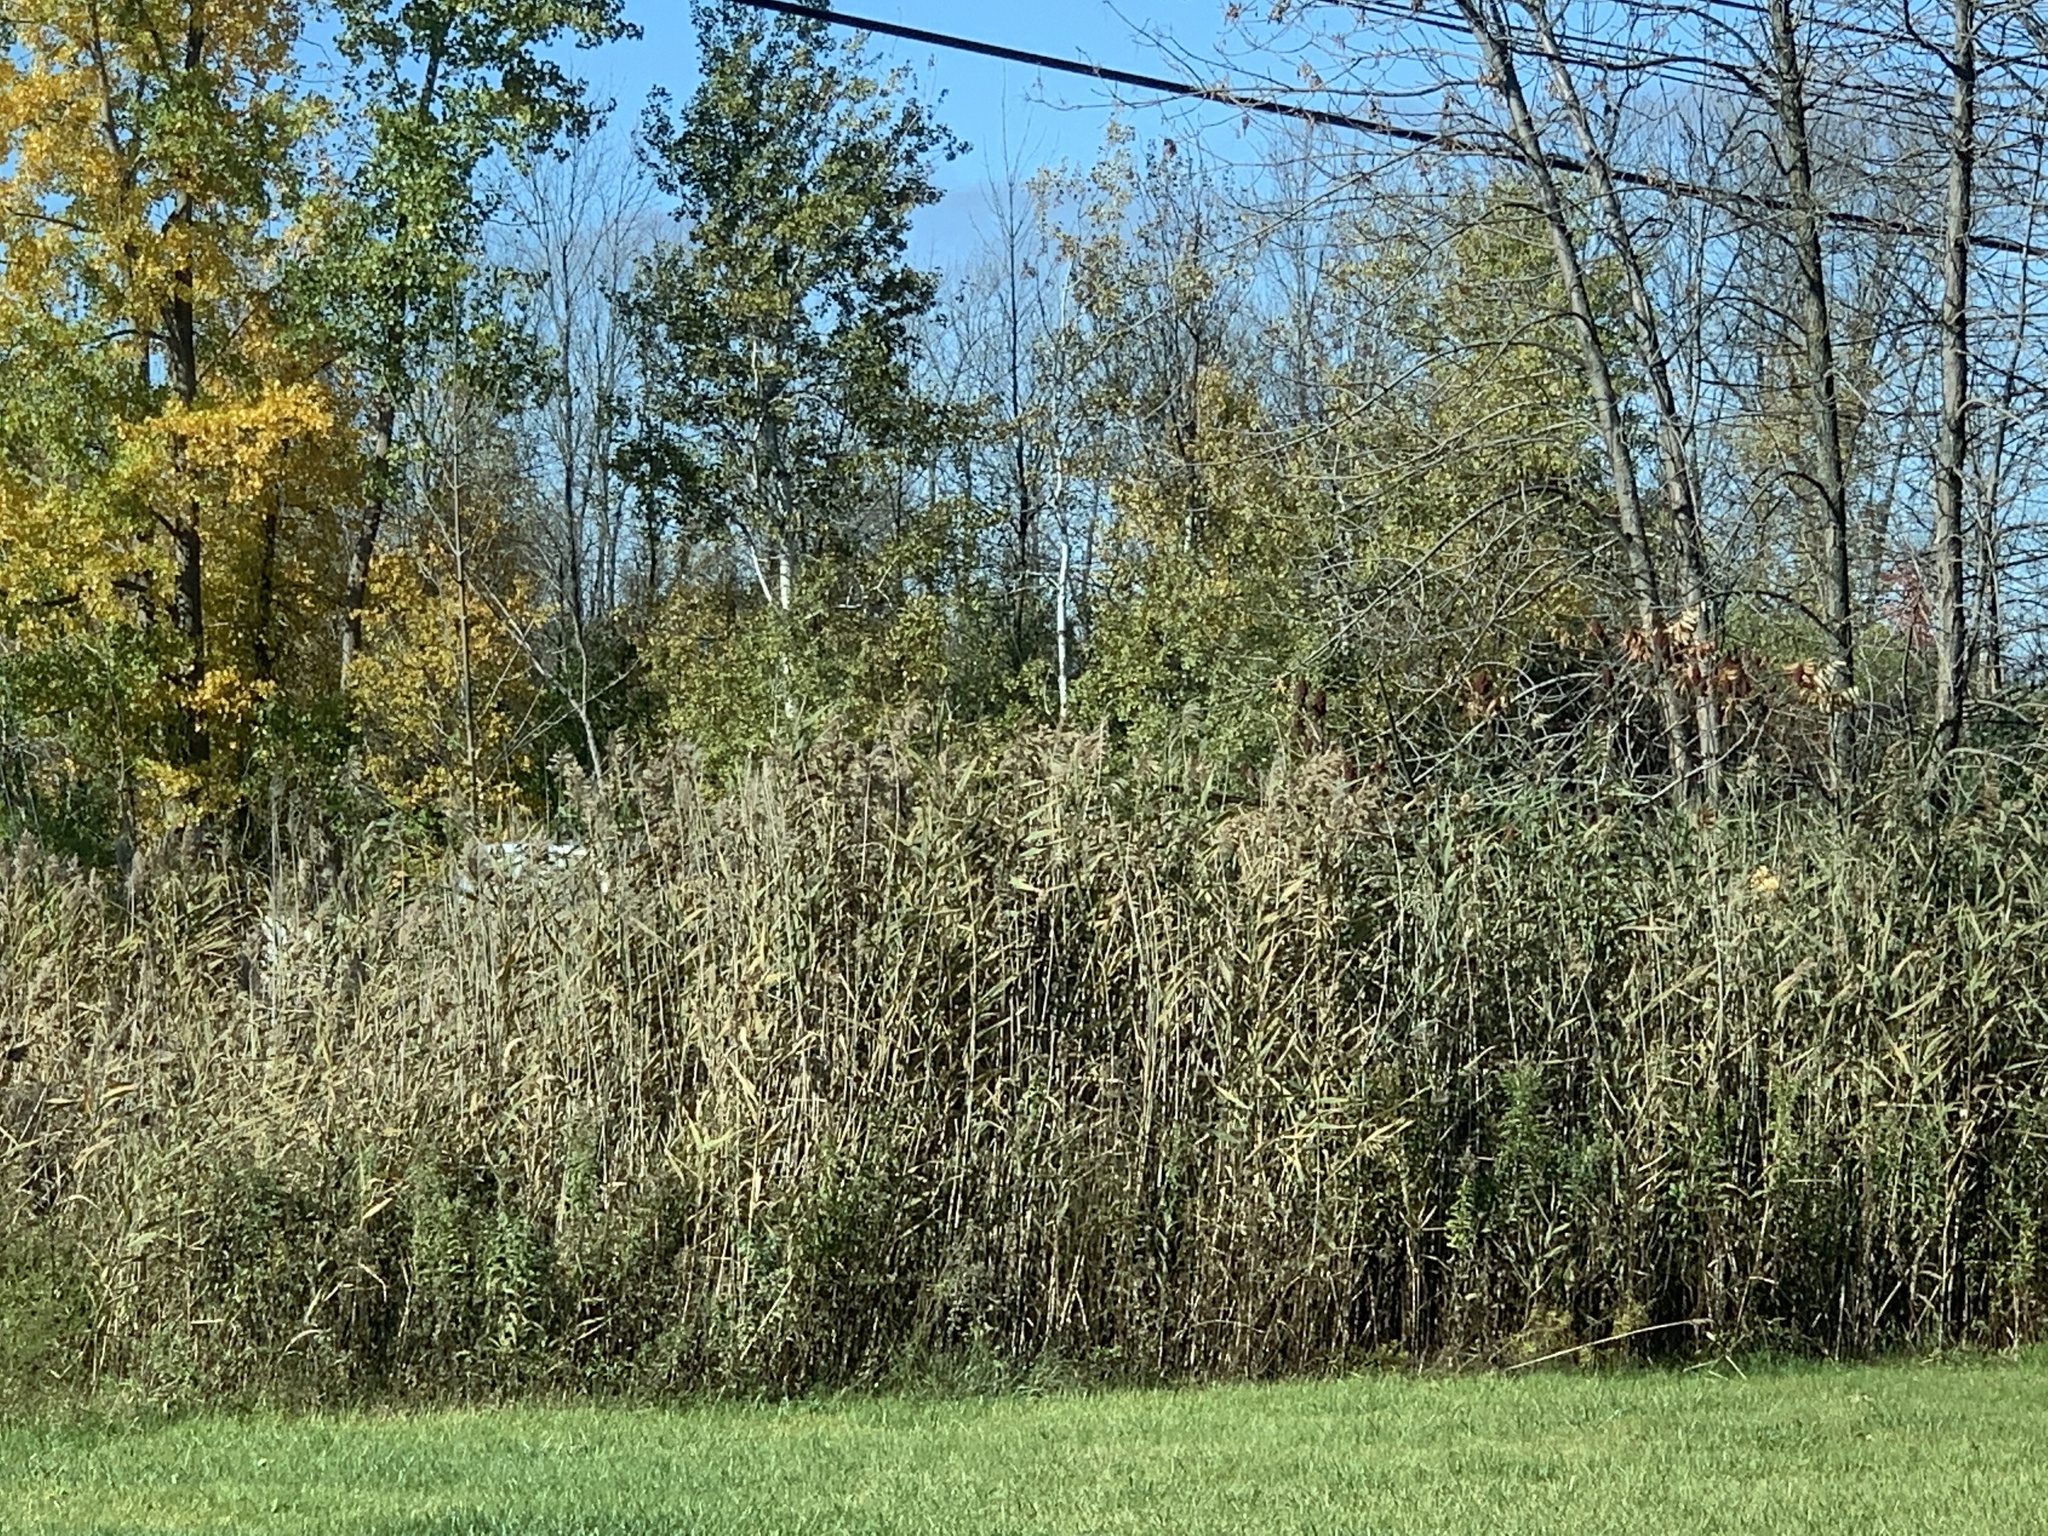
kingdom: Plantae
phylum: Tracheophyta
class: Liliopsida
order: Poales
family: Poaceae
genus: Phragmites
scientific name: Phragmites australis
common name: Common reed
